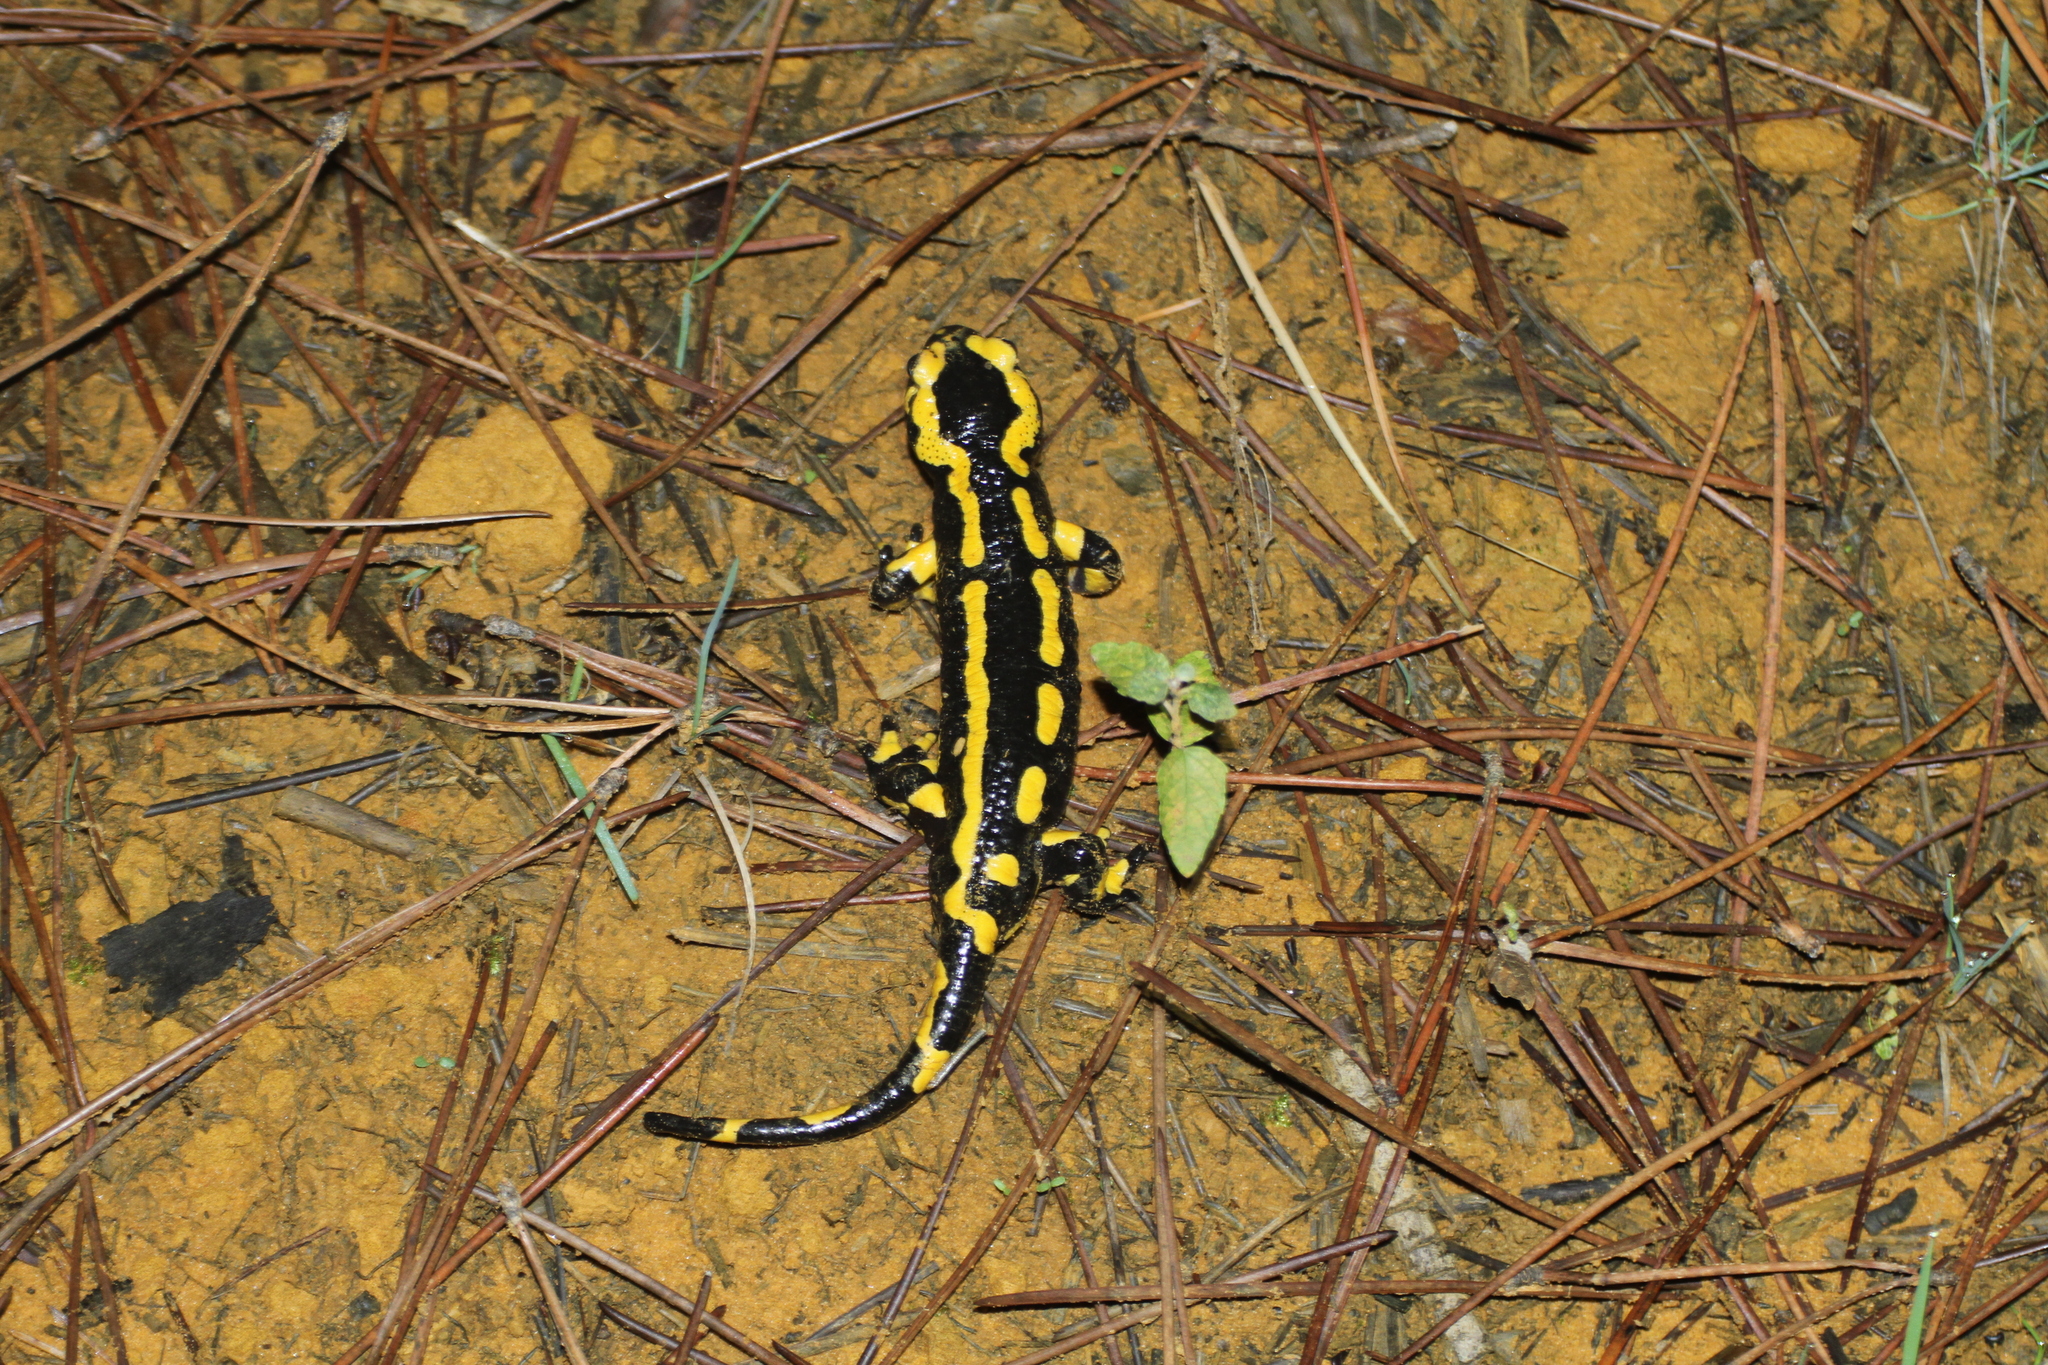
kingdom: Animalia
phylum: Chordata
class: Amphibia
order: Caudata
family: Salamandridae
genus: Salamandra
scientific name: Salamandra salamandra
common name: Fire salamander
